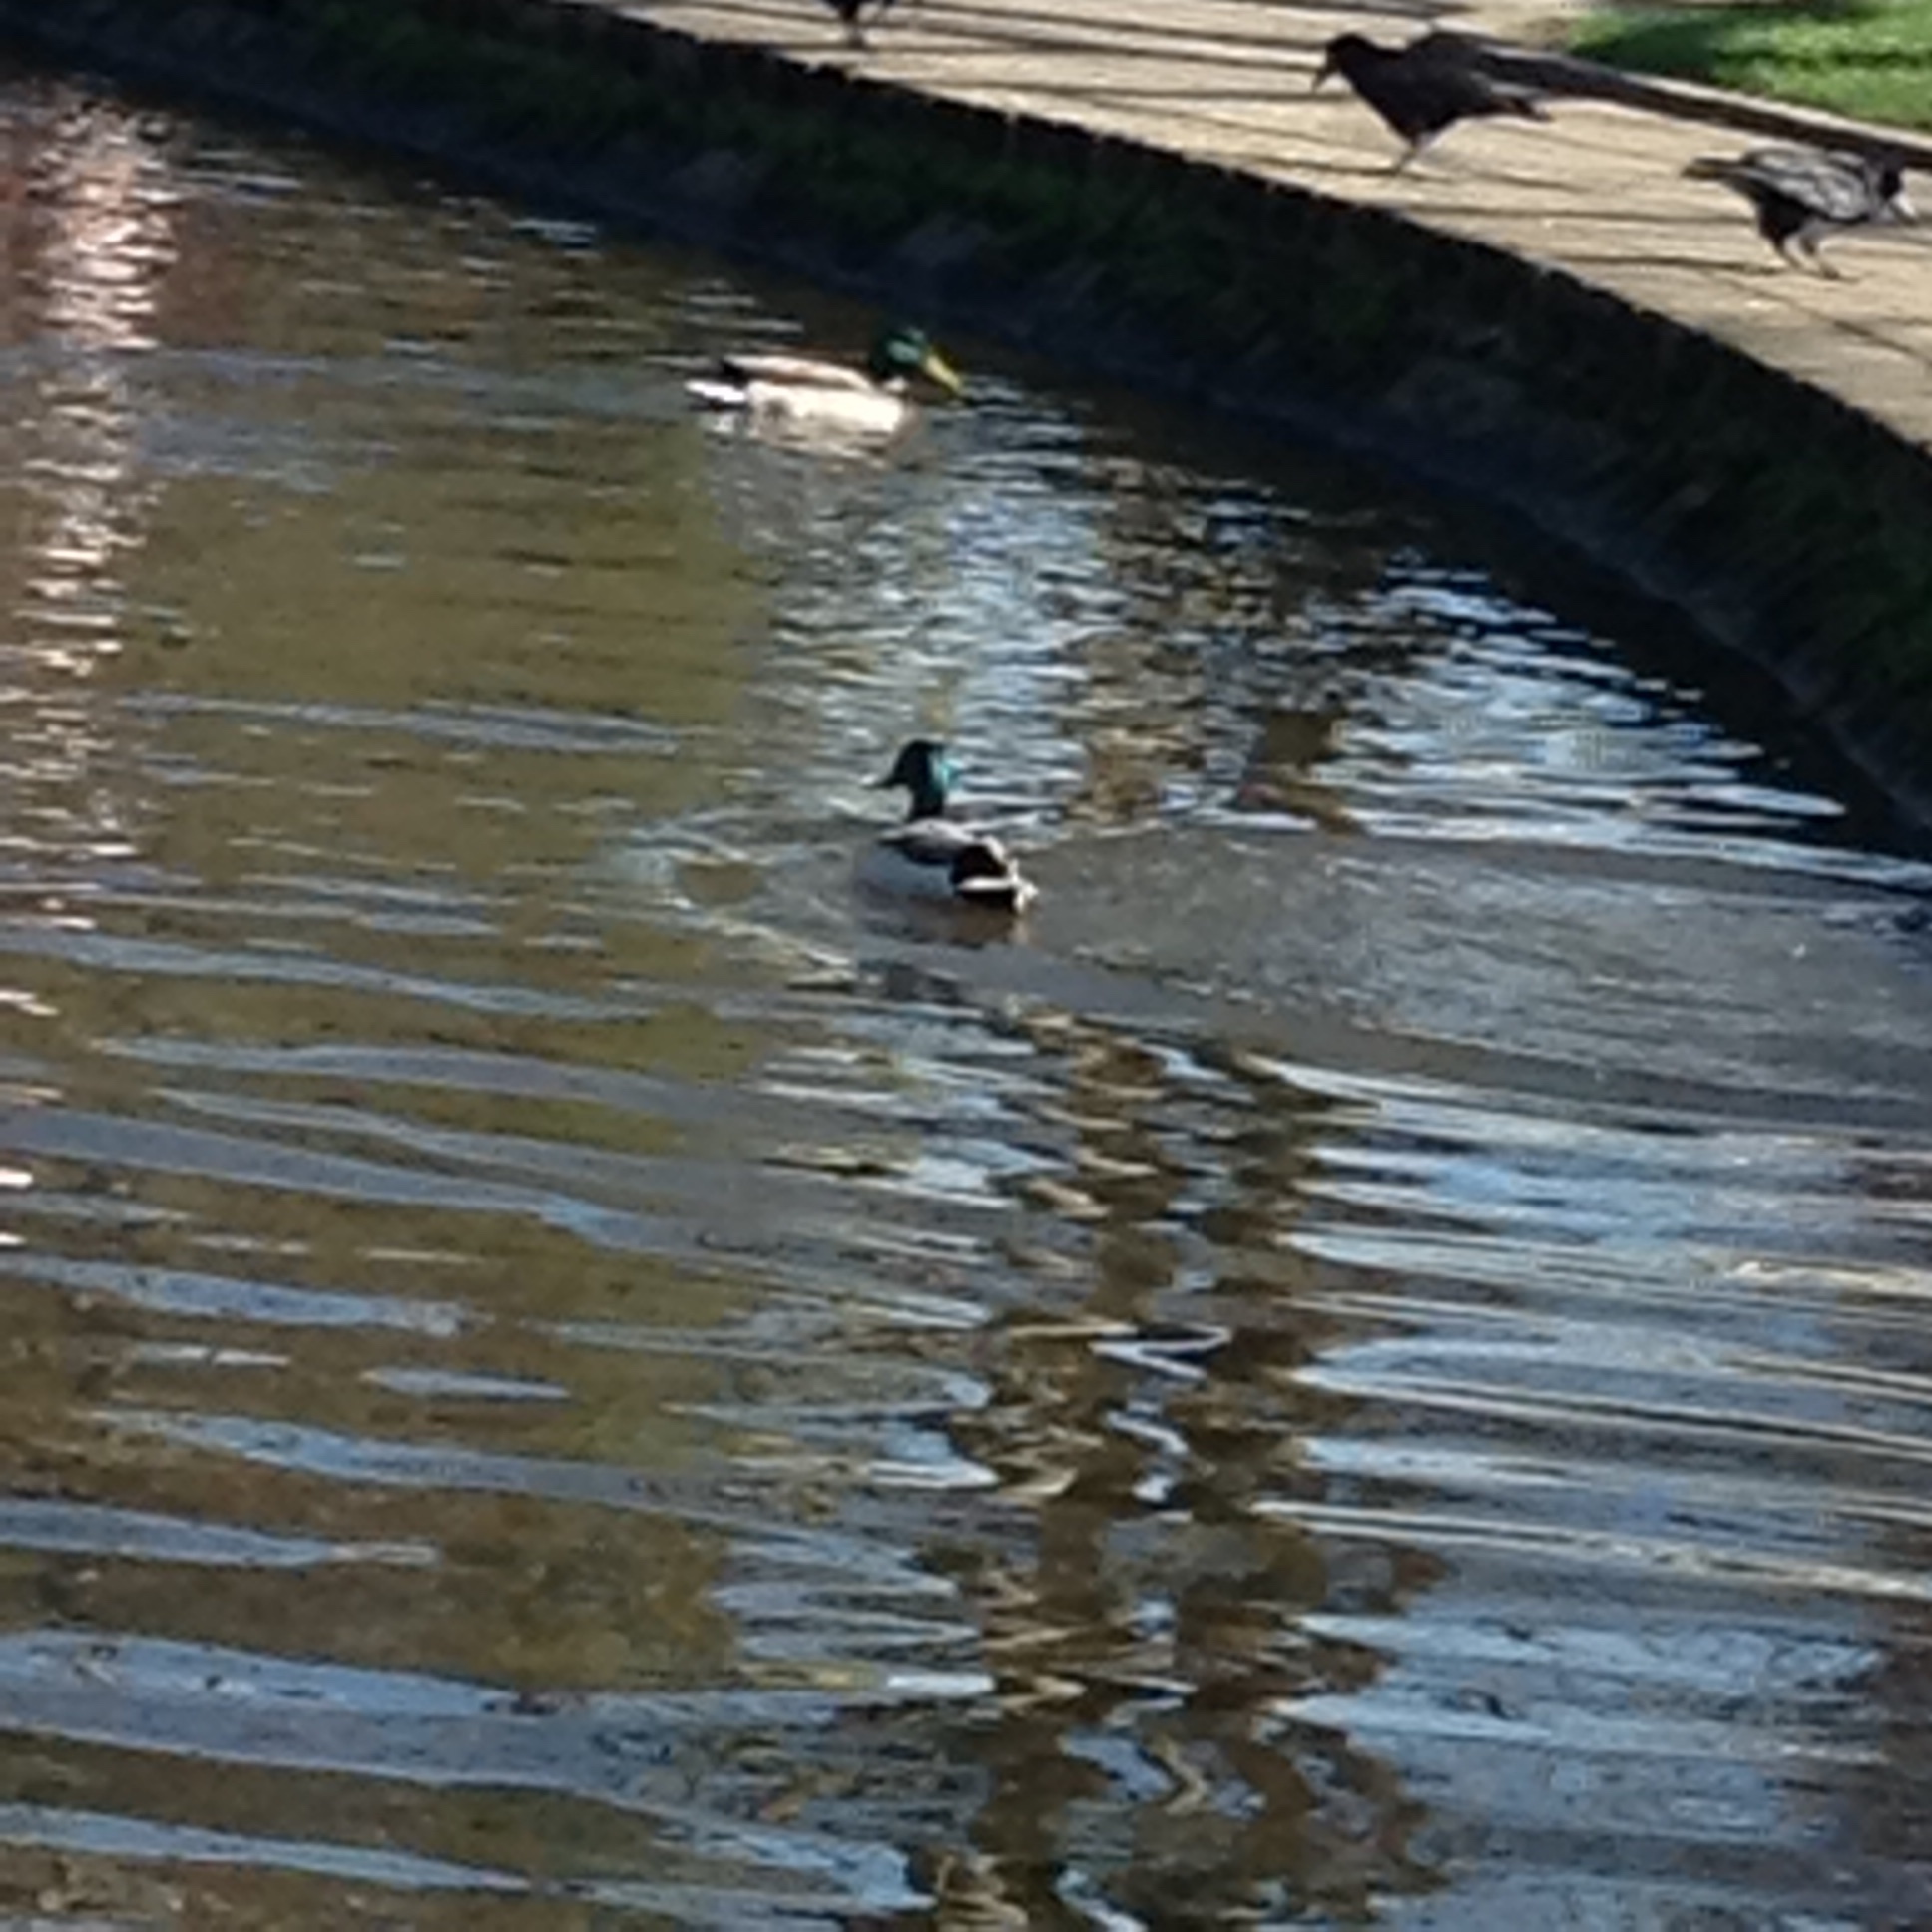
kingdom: Animalia
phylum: Chordata
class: Aves
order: Anseriformes
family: Anatidae
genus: Anas
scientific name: Anas platyrhynchos
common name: Mallard
